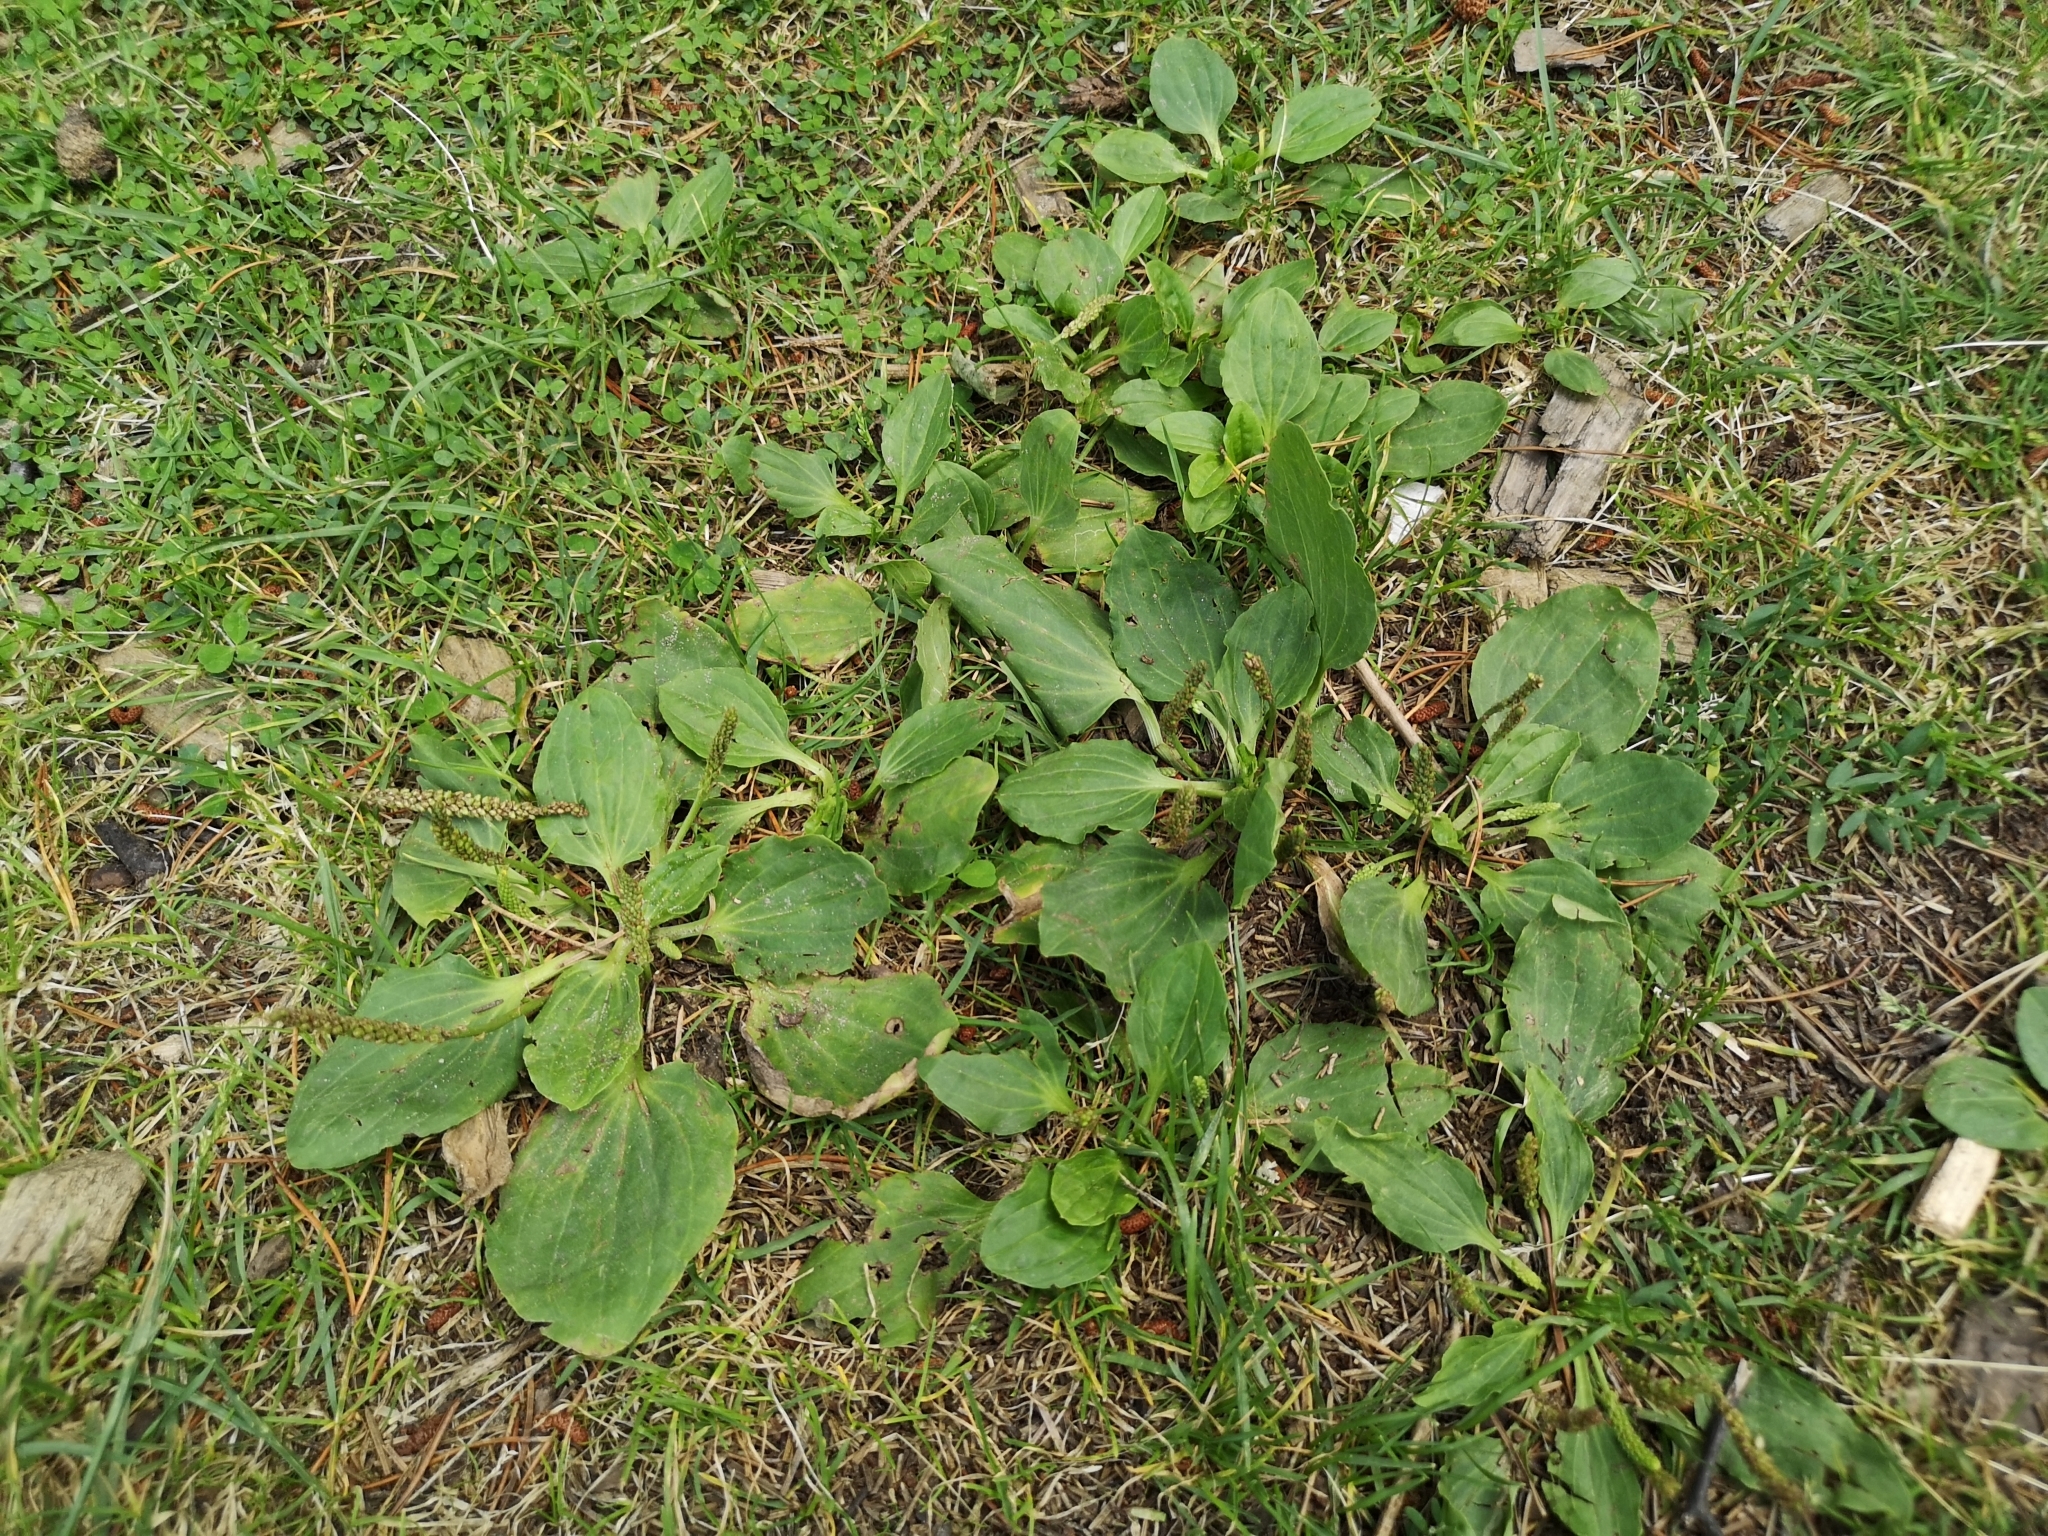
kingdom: Plantae
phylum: Tracheophyta
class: Magnoliopsida
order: Lamiales
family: Plantaginaceae
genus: Plantago
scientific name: Plantago major
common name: Common plantain
